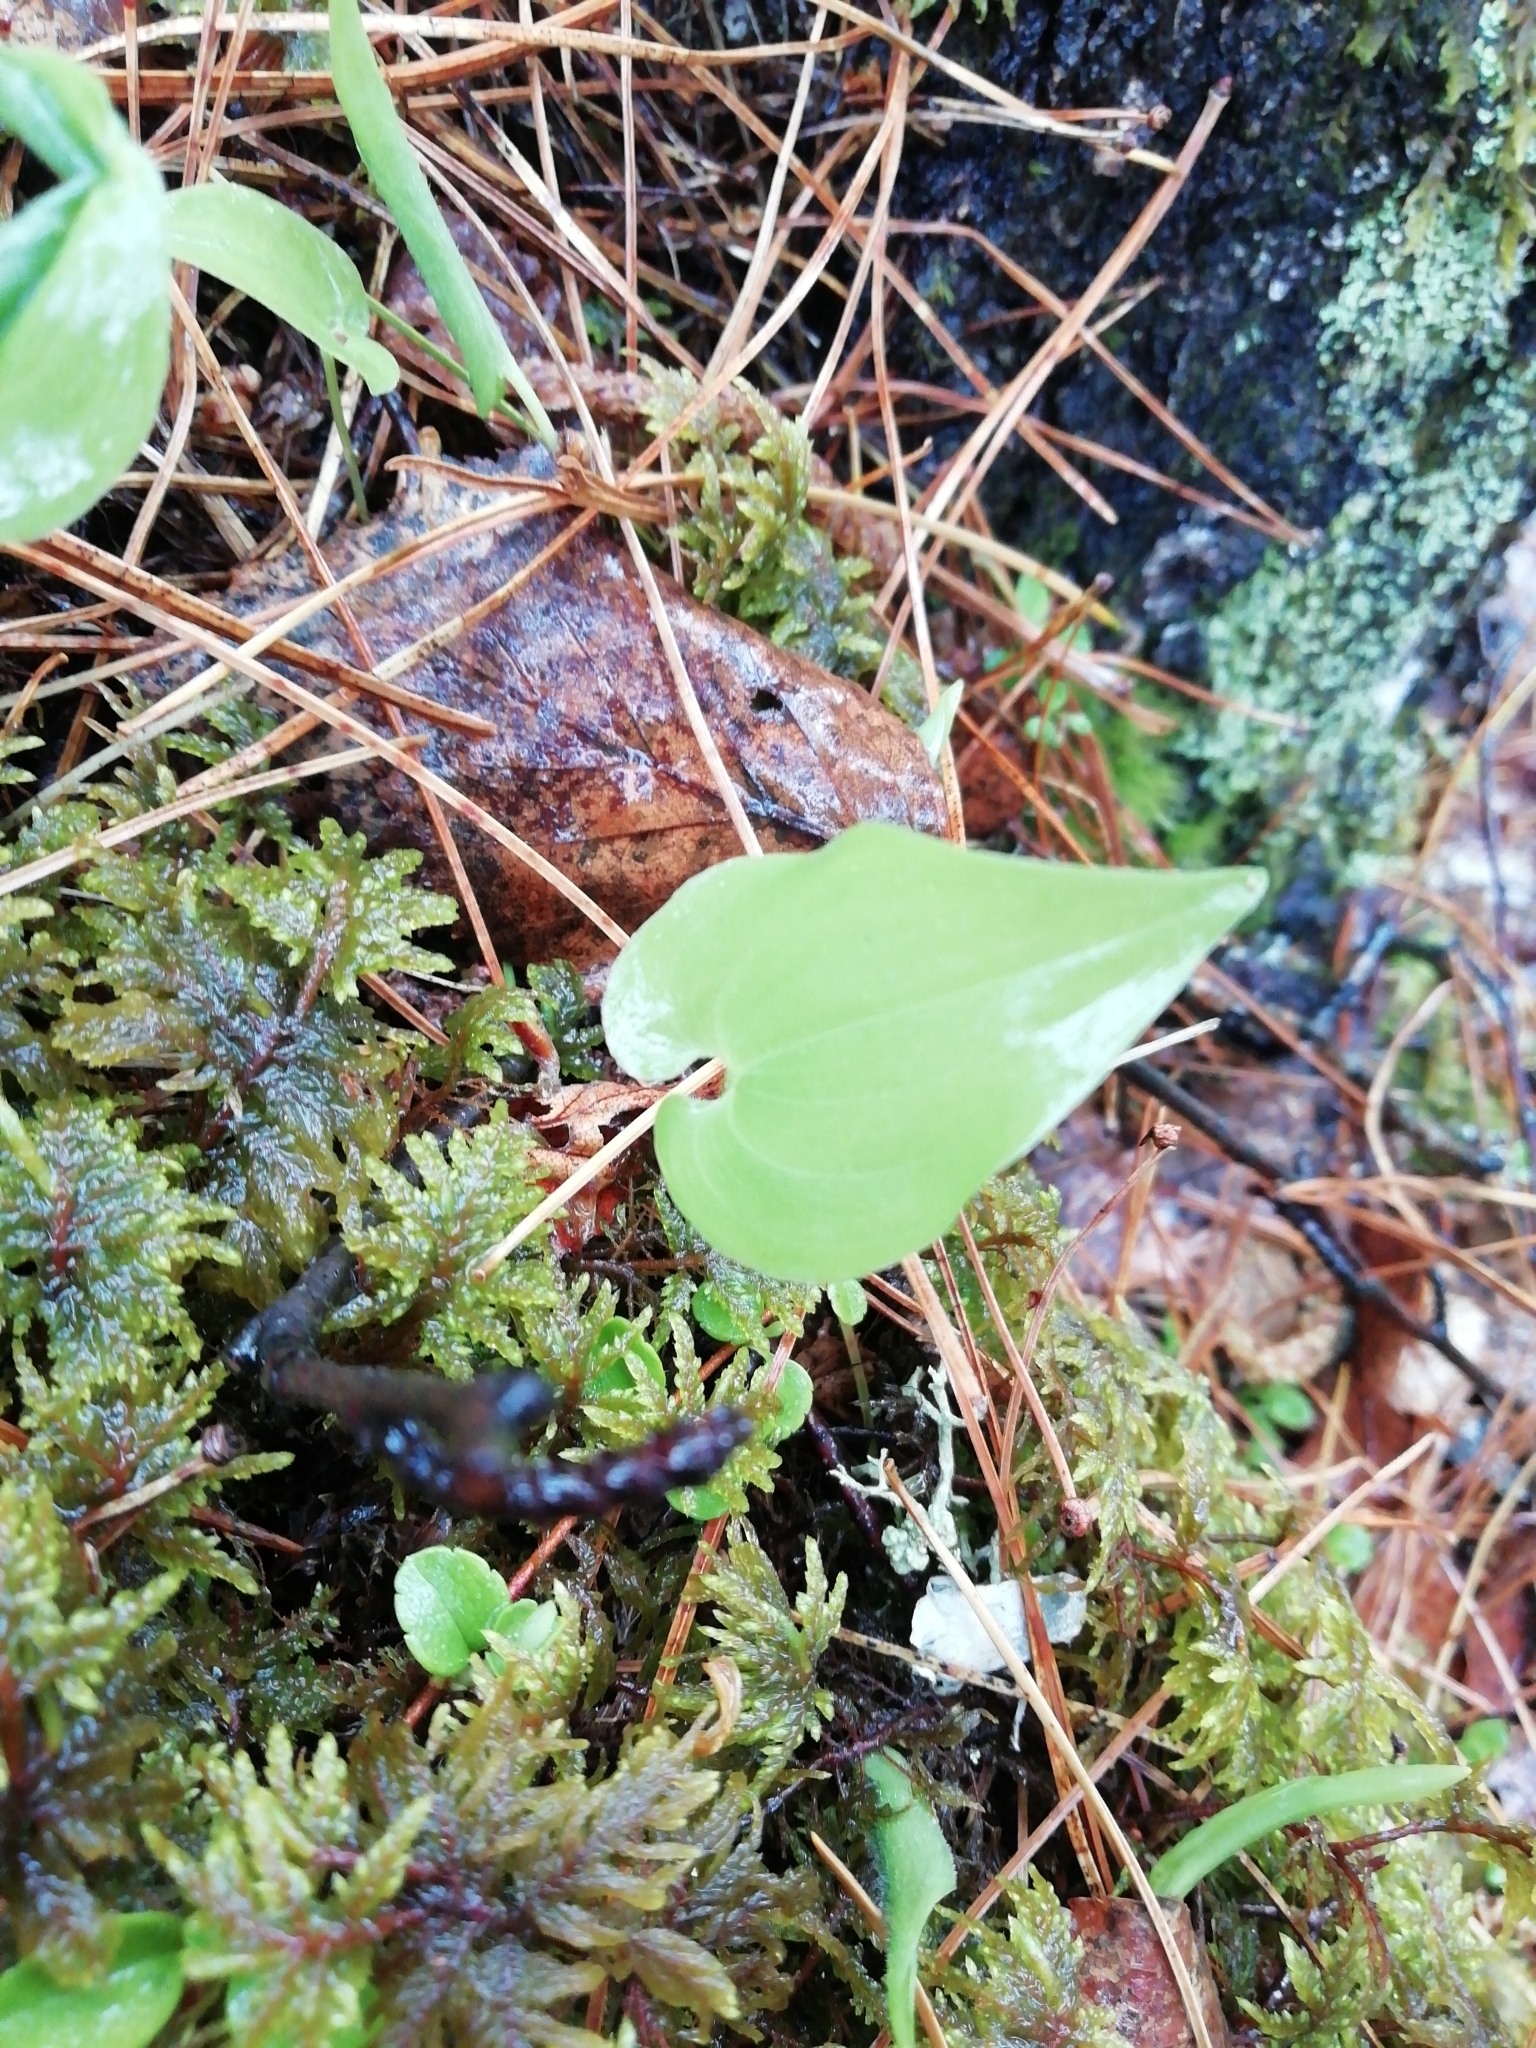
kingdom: Plantae
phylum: Tracheophyta
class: Liliopsida
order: Asparagales
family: Asparagaceae
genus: Maianthemum
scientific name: Maianthemum bifolium
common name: May lily
